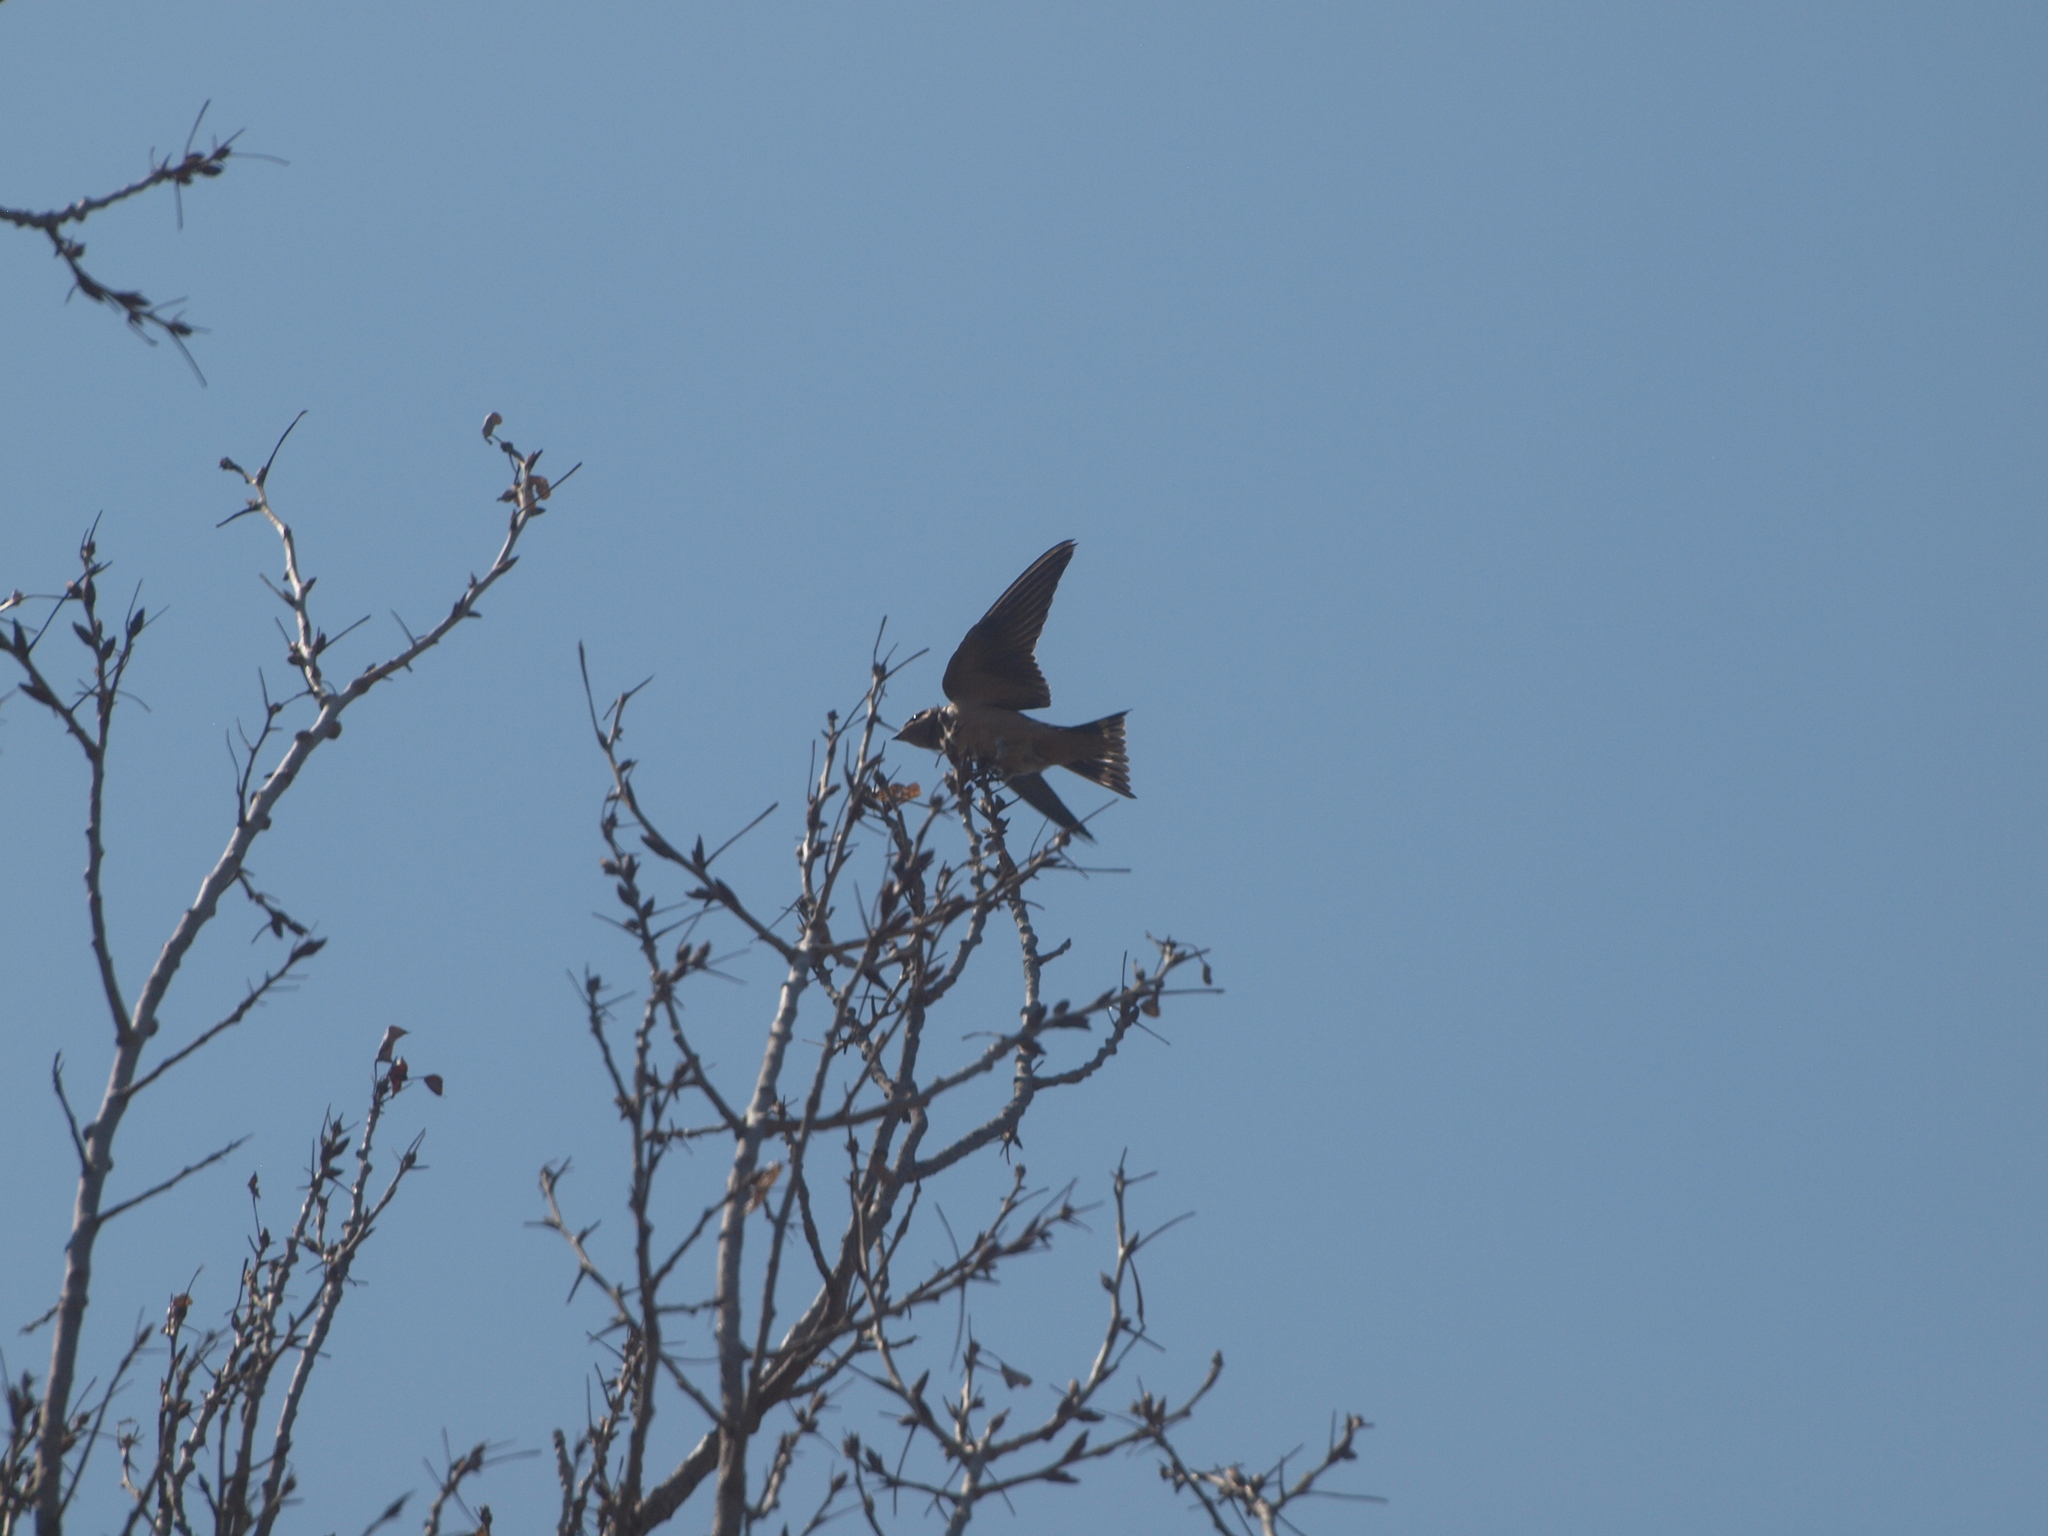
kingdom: Animalia
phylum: Chordata
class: Aves
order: Passeriformes
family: Hirundinidae
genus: Hirundo
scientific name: Hirundo rustica
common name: Barn swallow
